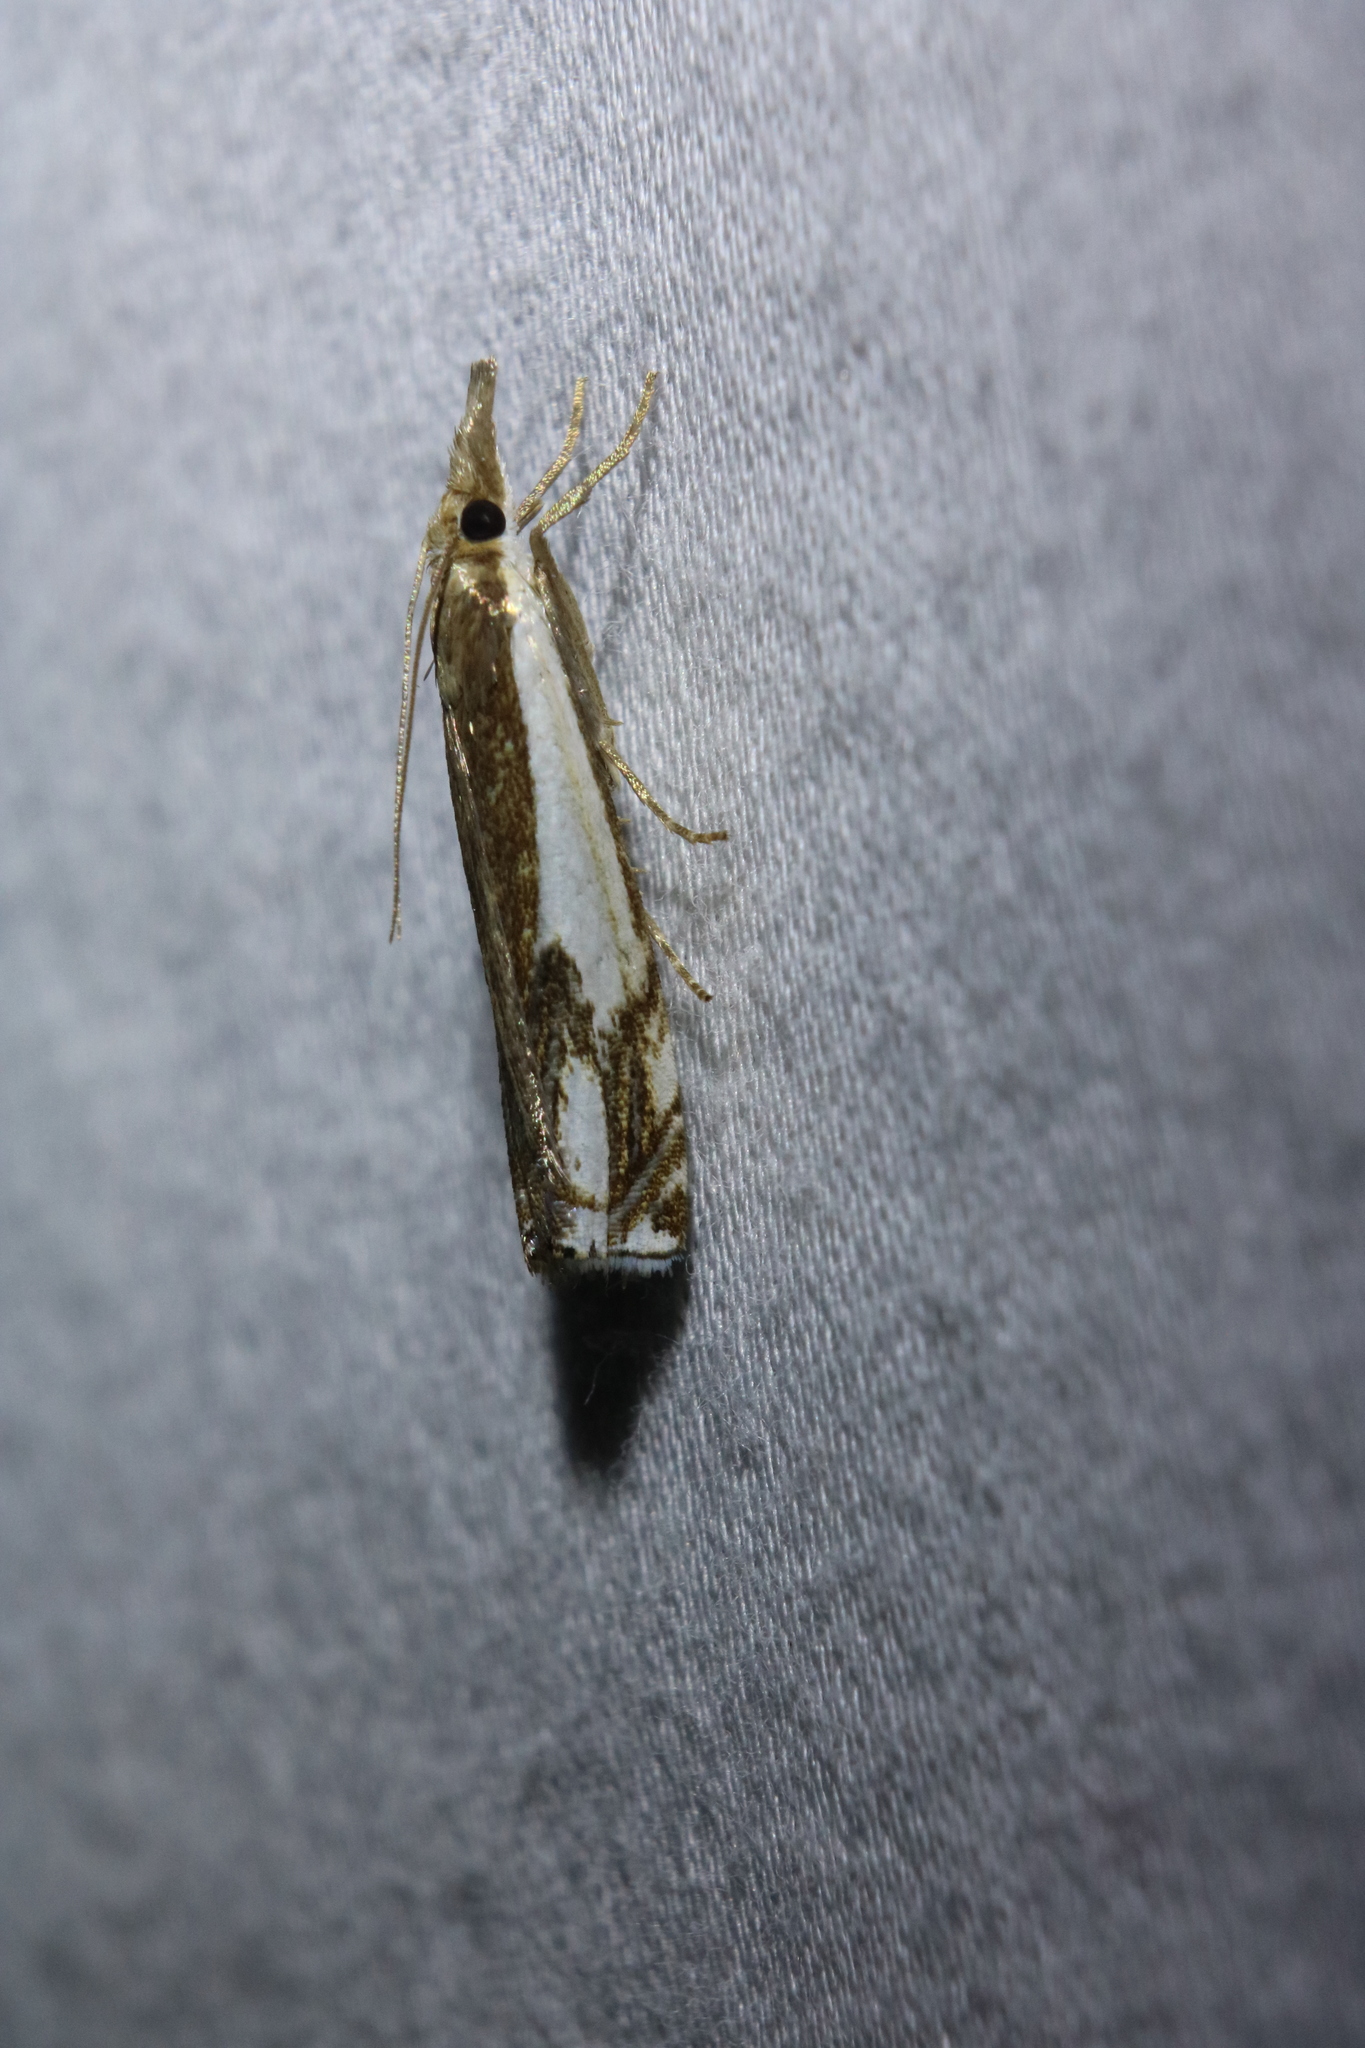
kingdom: Animalia
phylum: Arthropoda
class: Insecta
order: Lepidoptera
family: Crambidae
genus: Crambus
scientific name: Crambus agitatellus
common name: Double-banded grass-veneer
